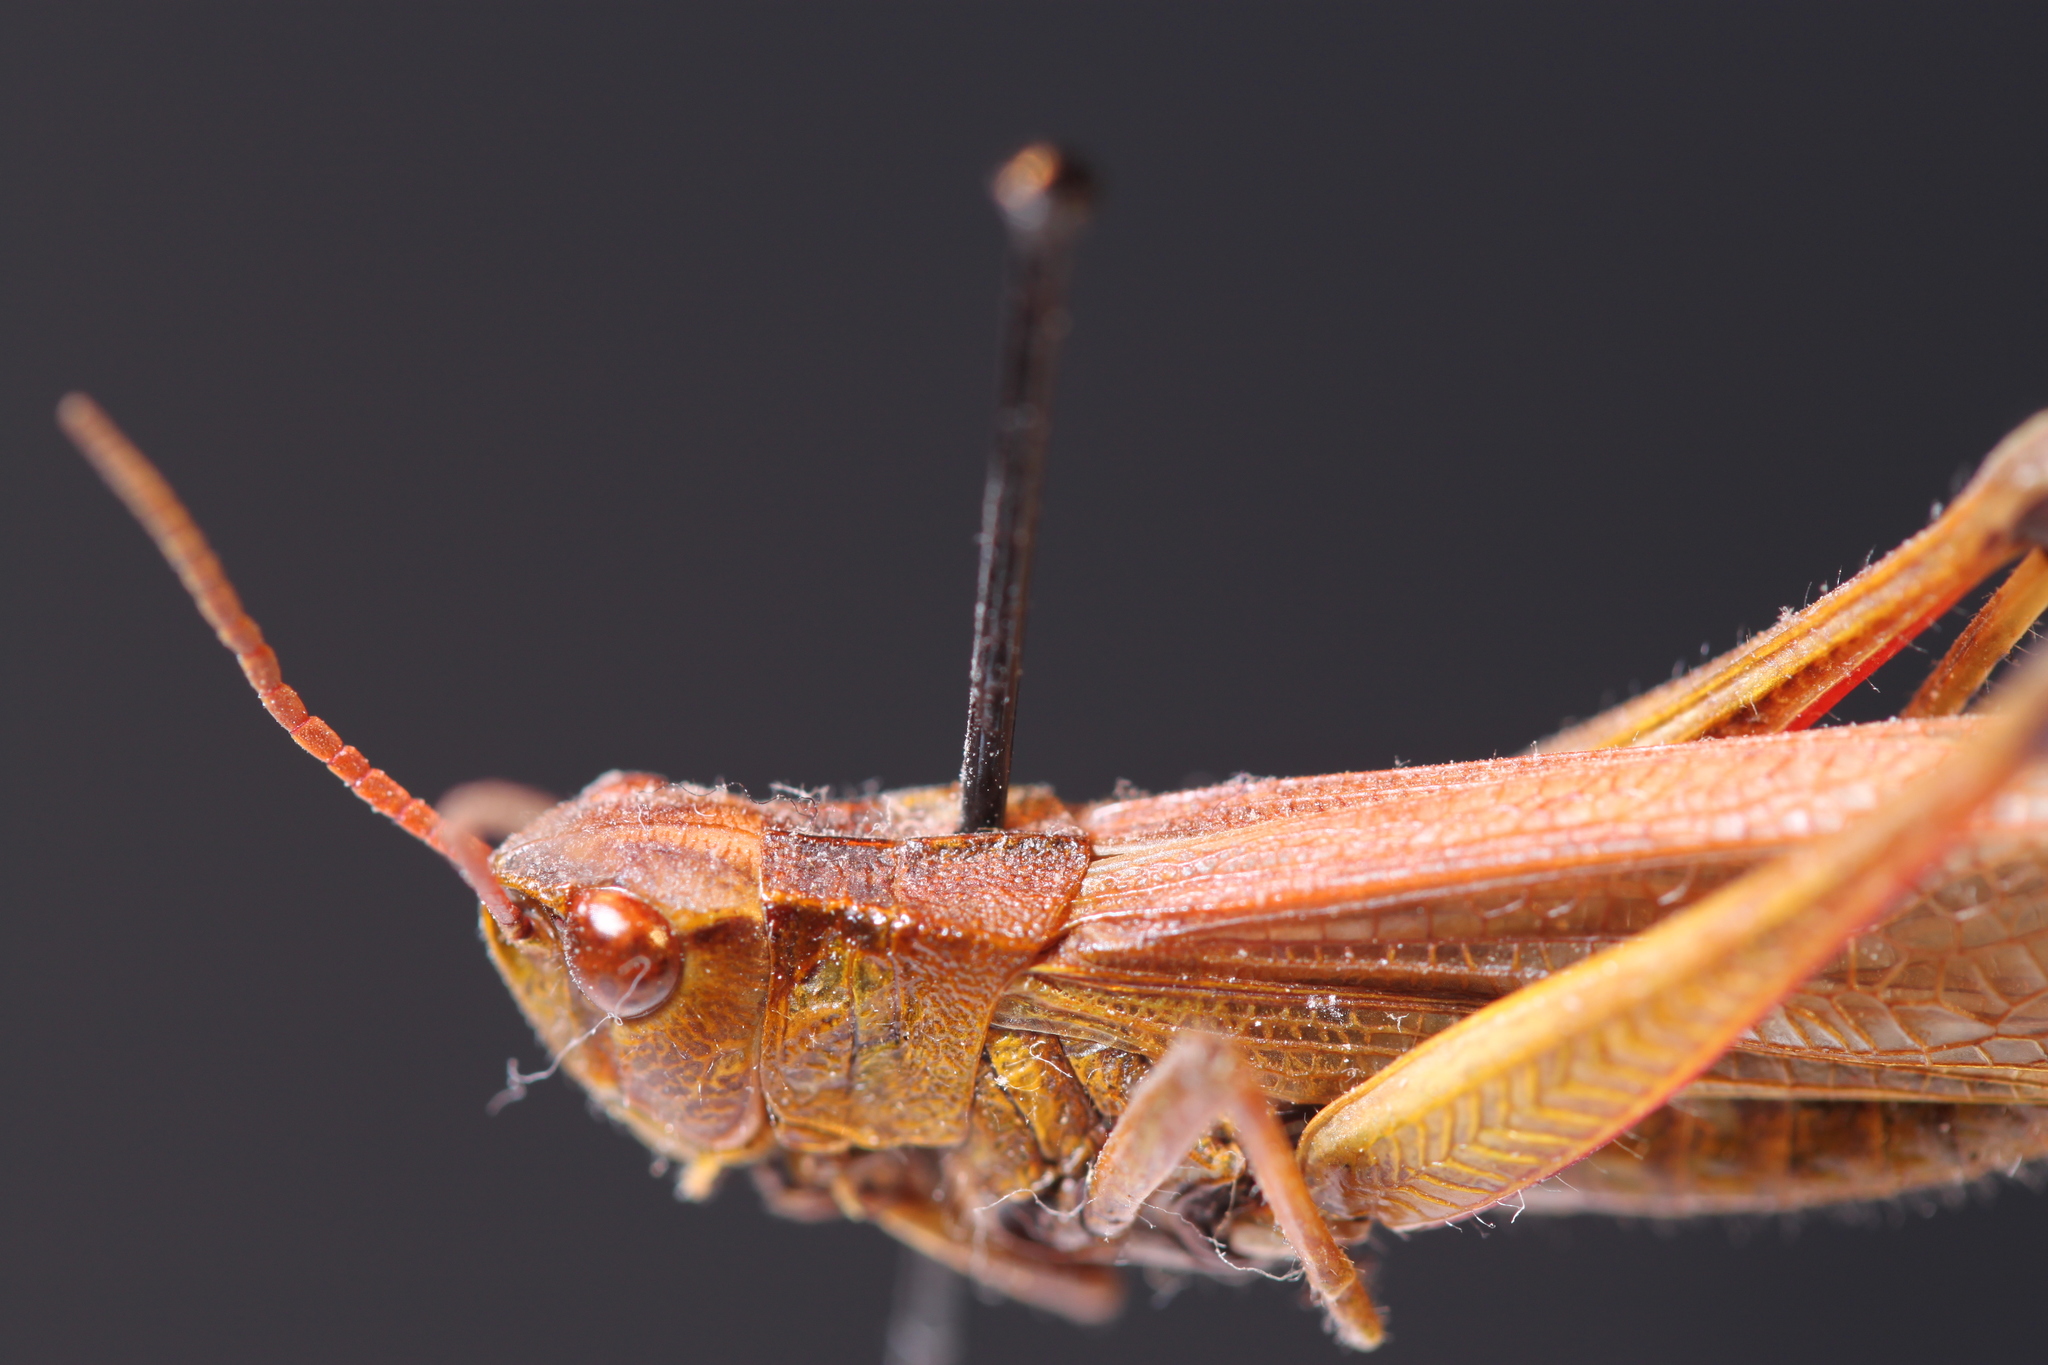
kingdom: Animalia
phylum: Arthropoda
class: Insecta
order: Orthoptera
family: Acrididae
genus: Stethophyma
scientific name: Stethophyma gracile
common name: Graceful sedge grasshopper
